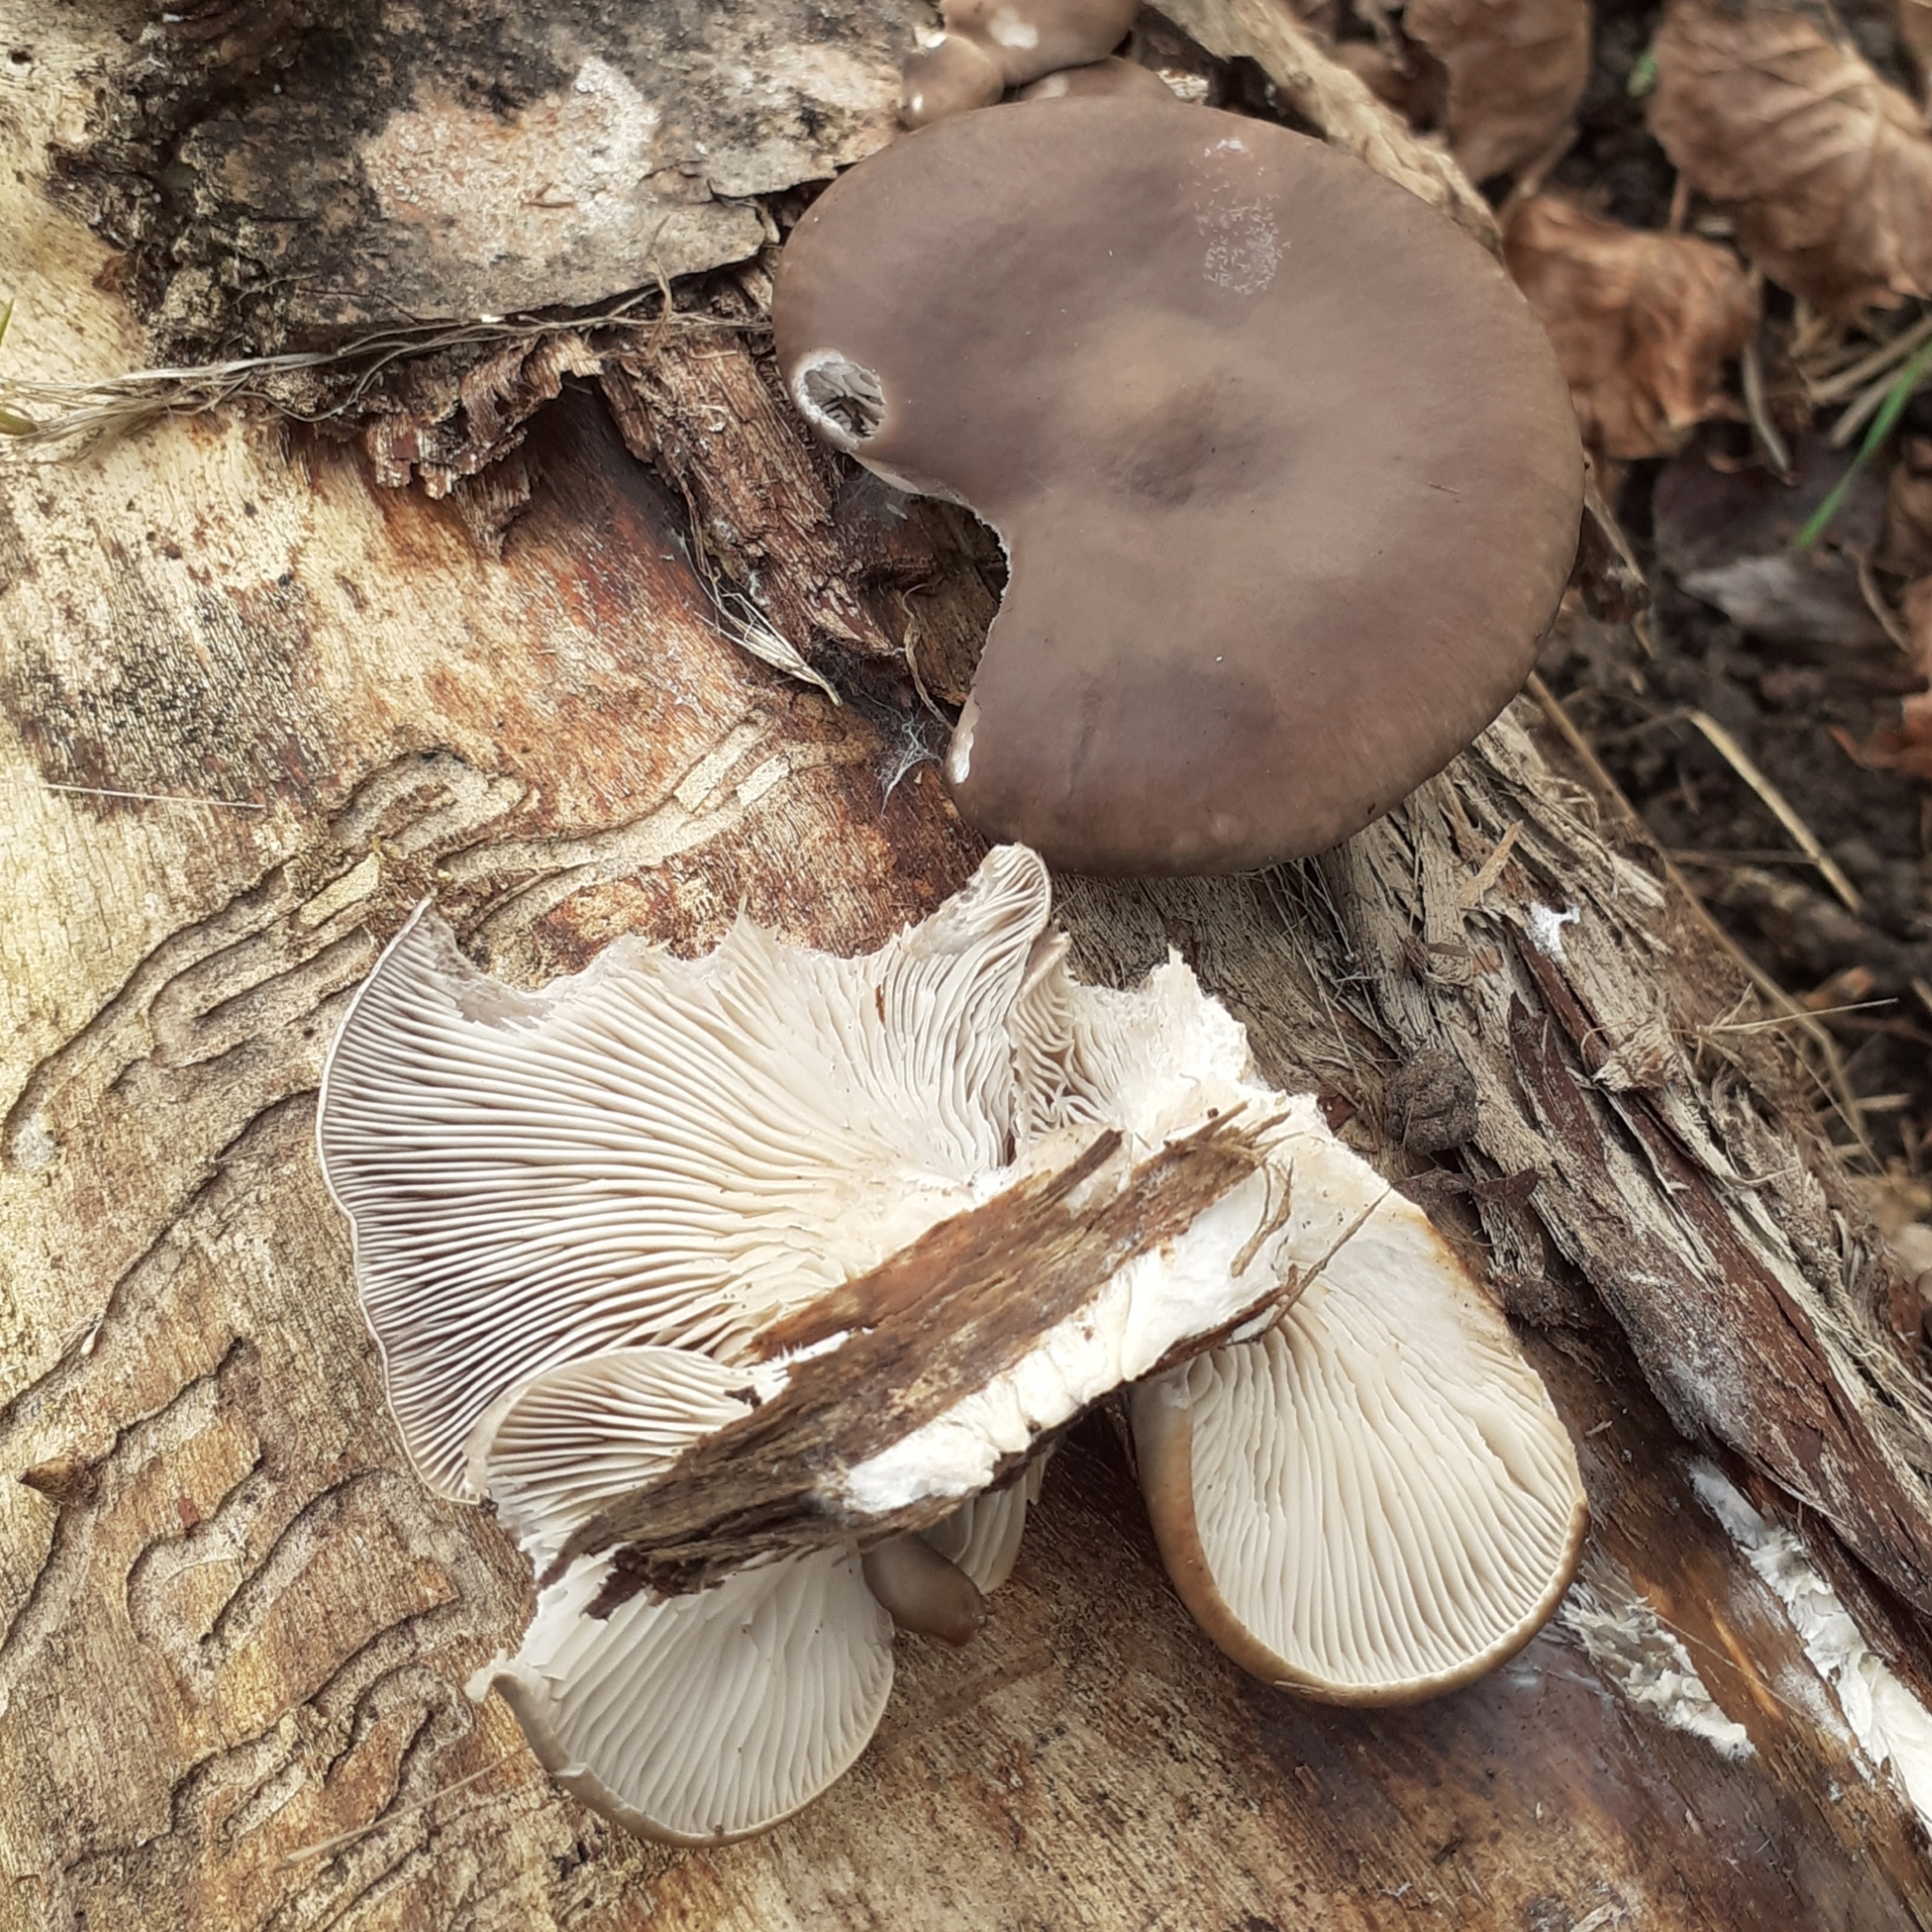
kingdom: Fungi
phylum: Basidiomycota
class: Agaricomycetes
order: Agaricales
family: Pleurotaceae
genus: Pleurotus
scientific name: Pleurotus ostreatus
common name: Oyster mushroom
